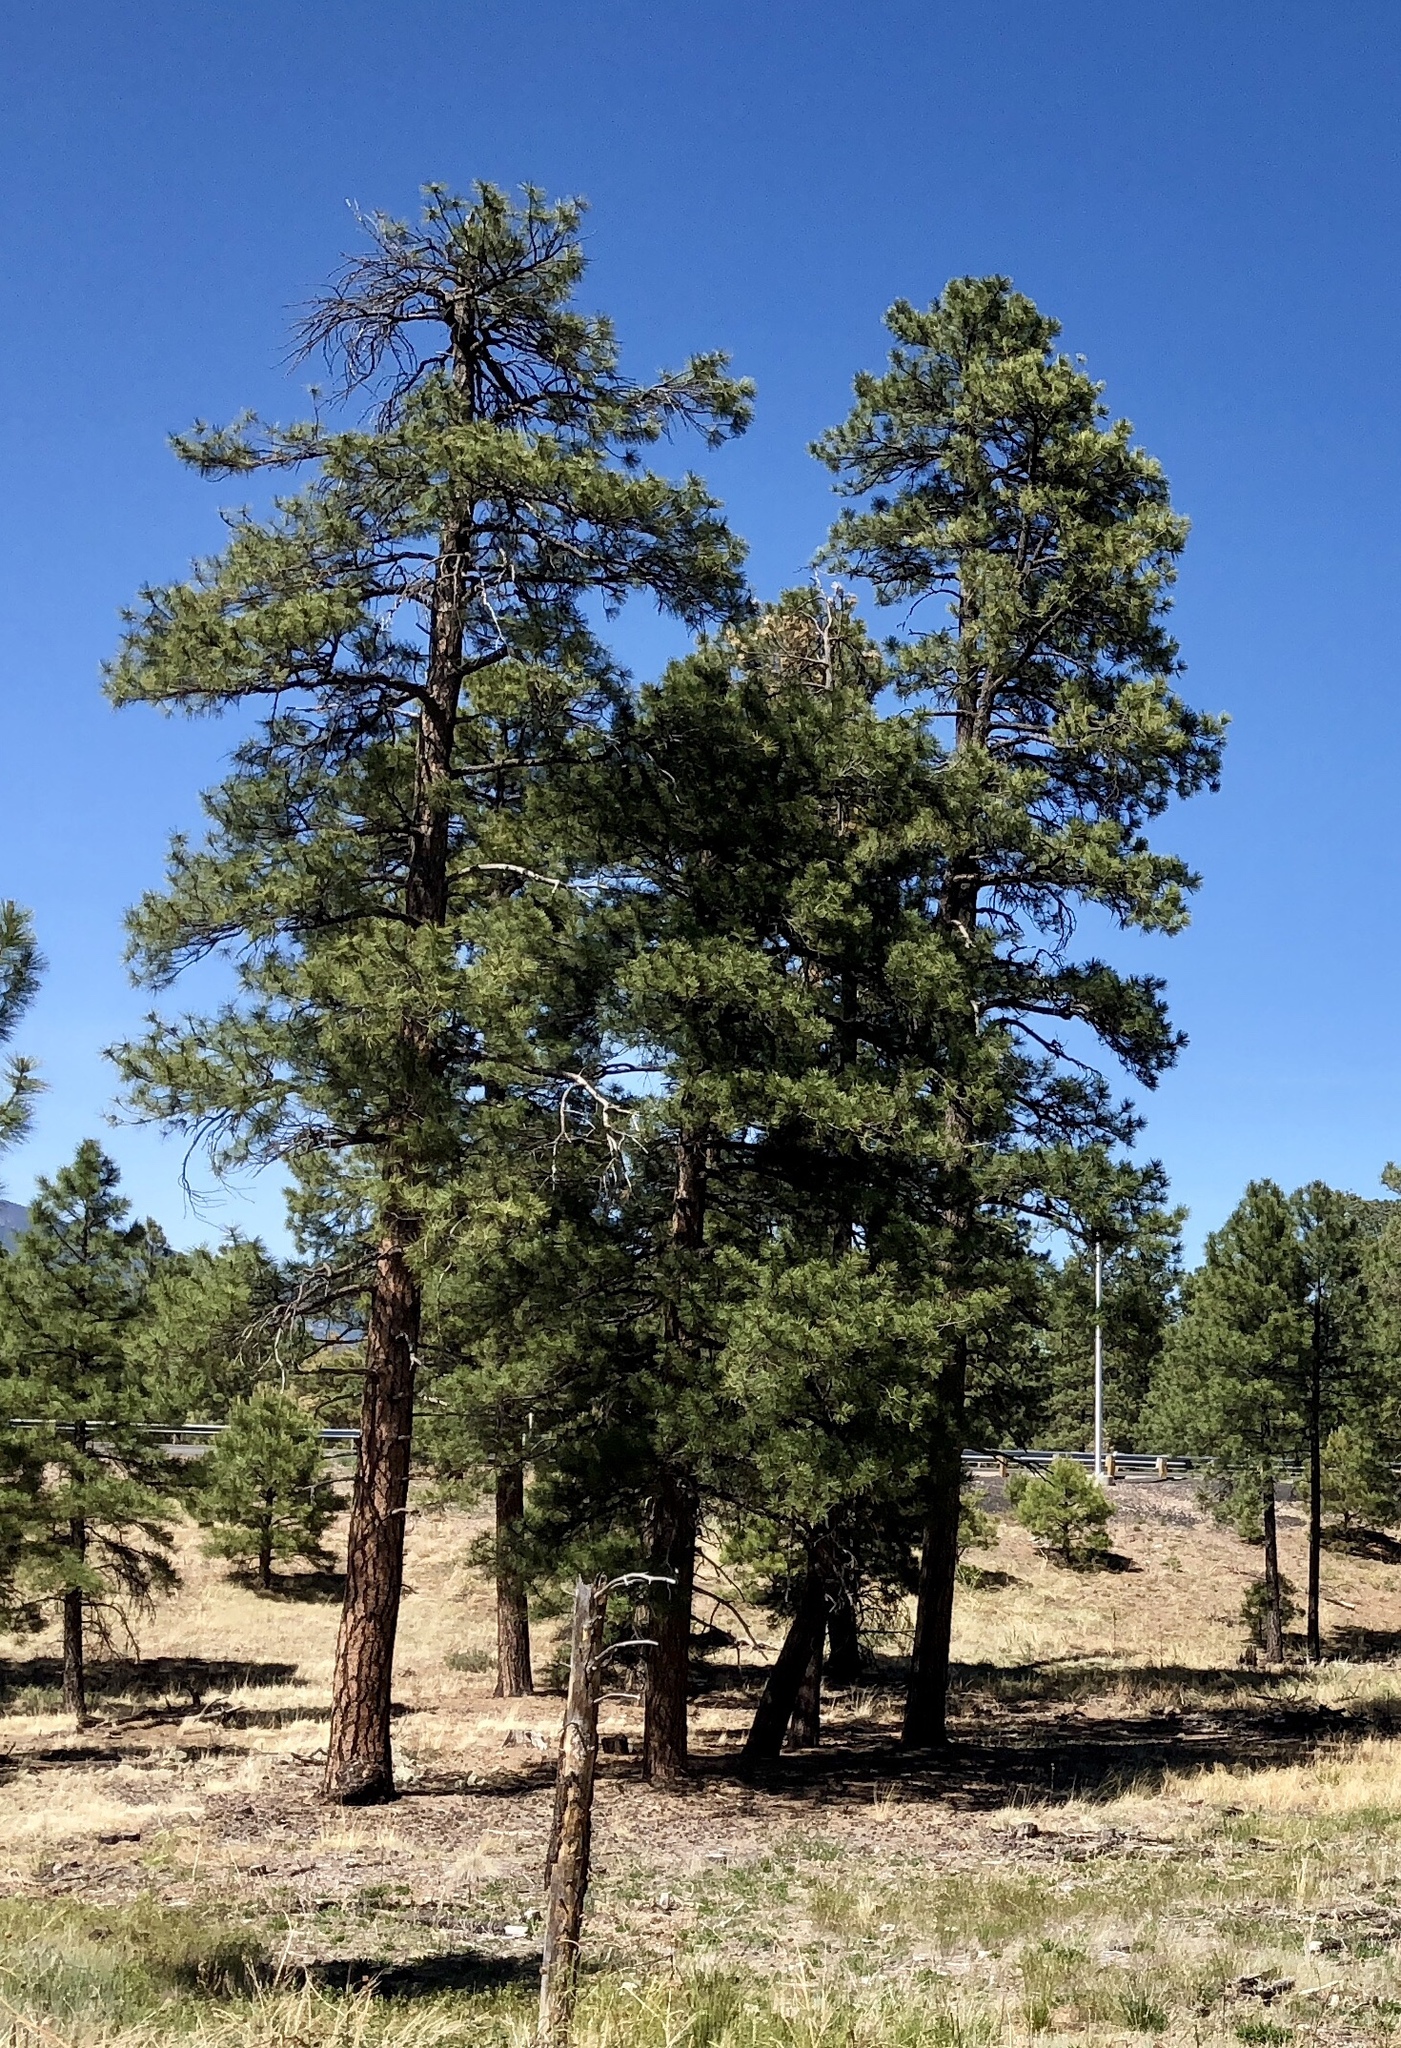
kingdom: Plantae
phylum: Tracheophyta
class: Pinopsida
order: Pinales
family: Pinaceae
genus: Pinus
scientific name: Pinus ponderosa
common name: Western yellow-pine
